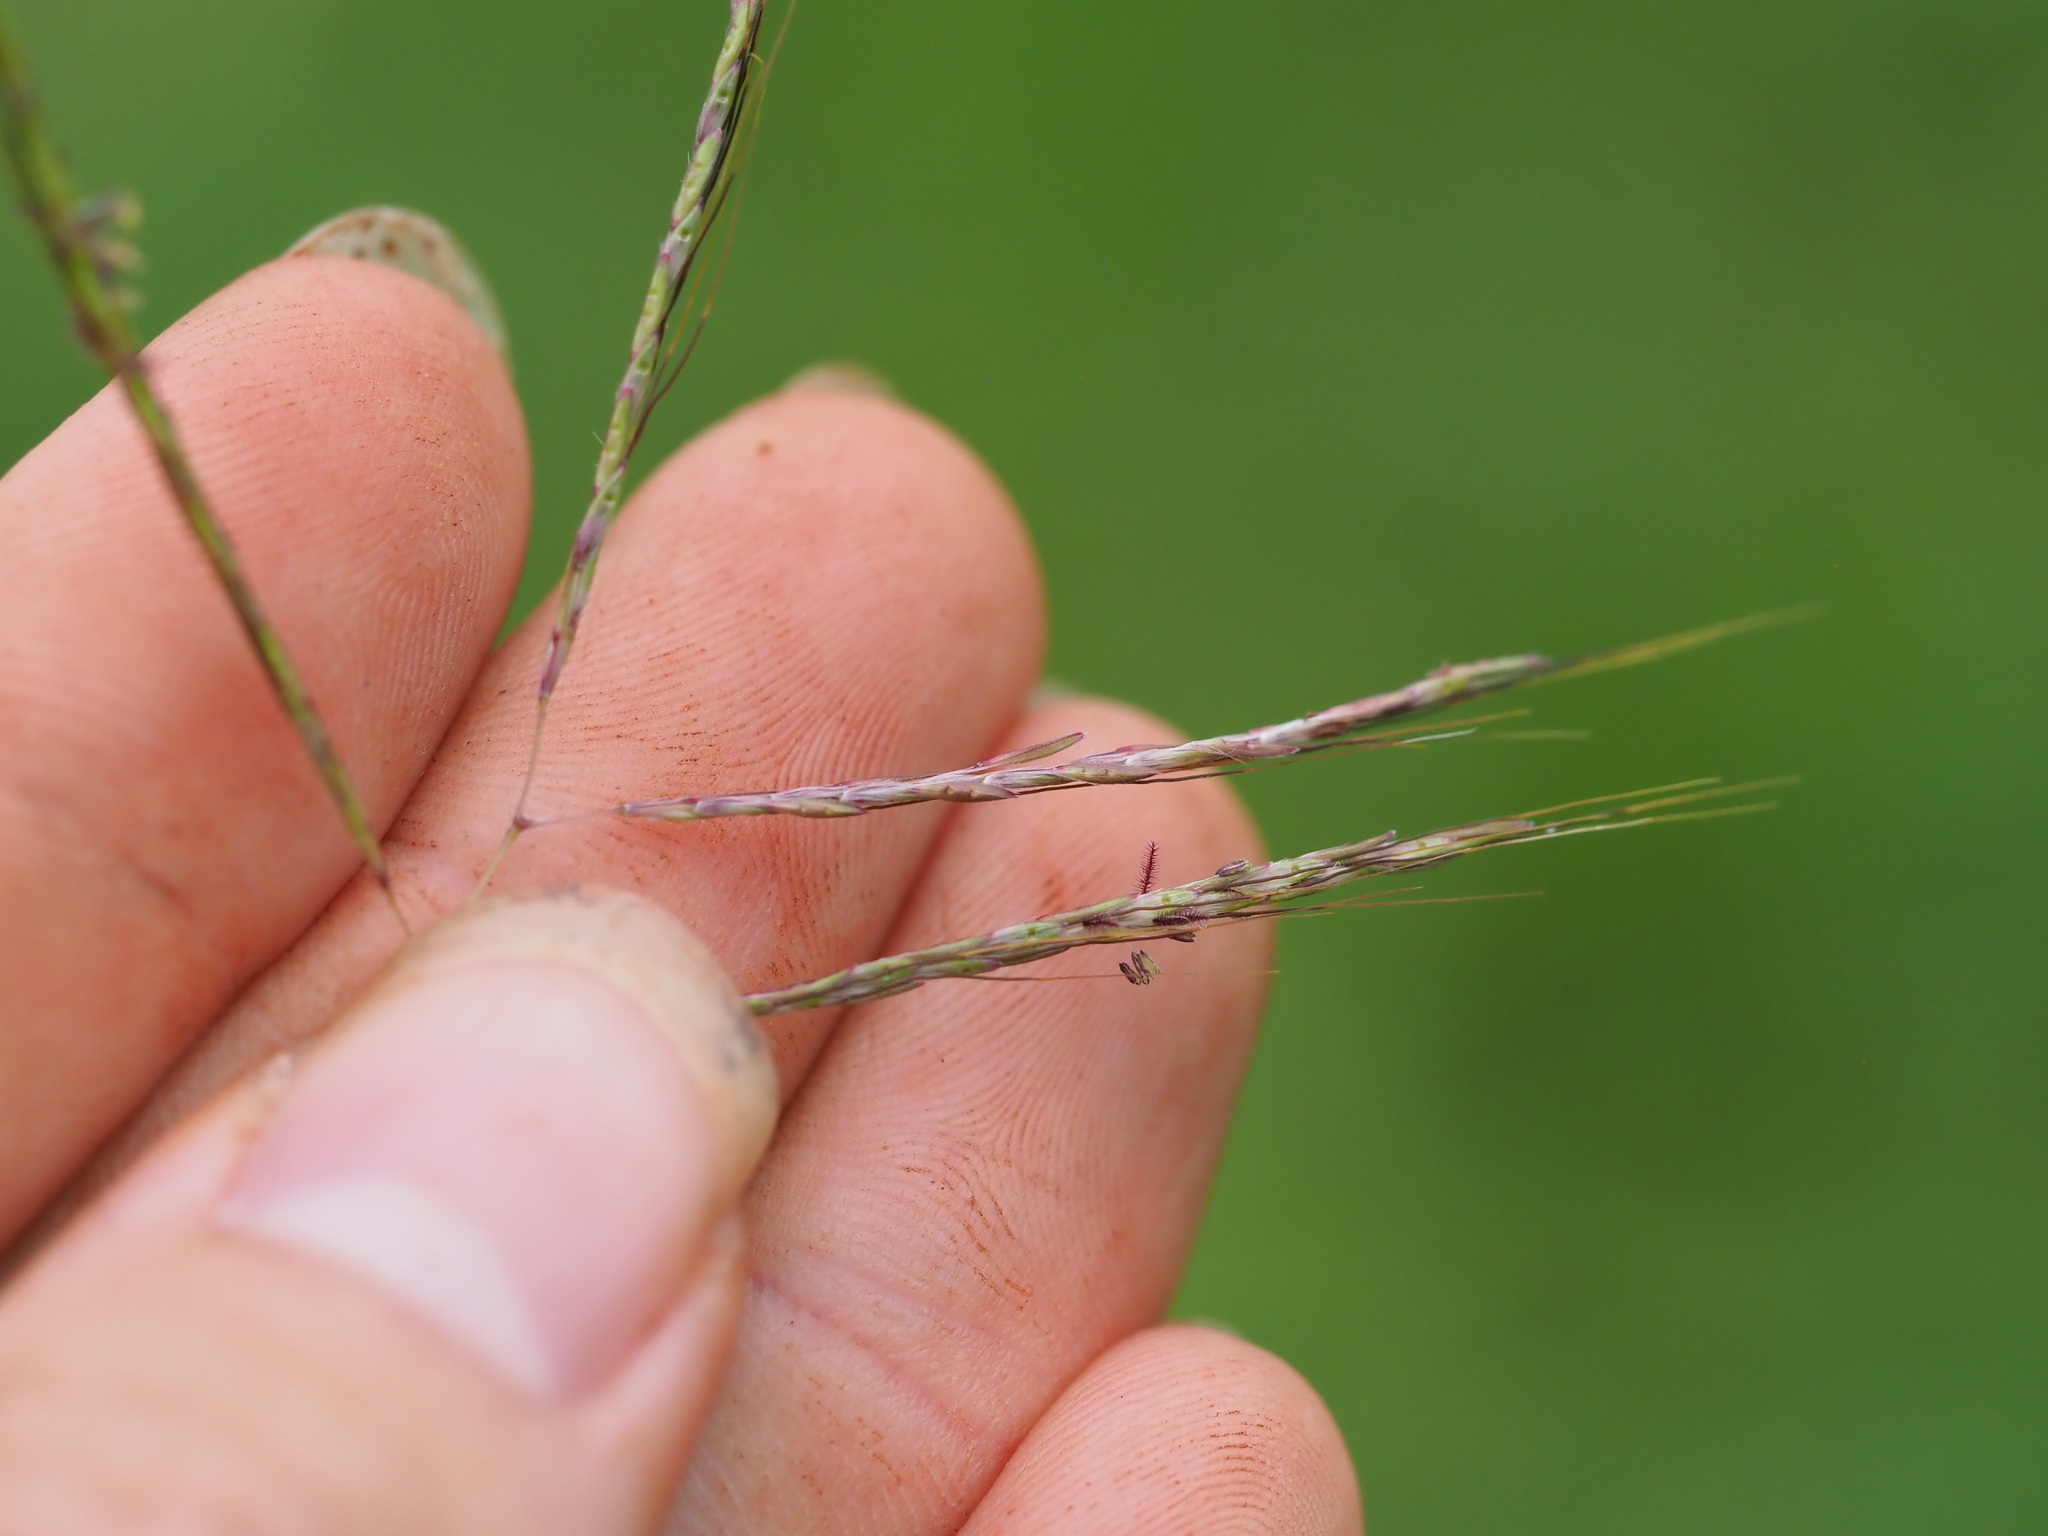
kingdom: Plantae
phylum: Tracheophyta
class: Liliopsida
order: Poales
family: Poaceae
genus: Bothriochloa
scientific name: Bothriochloa pertusa
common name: Pitted beardgrass
